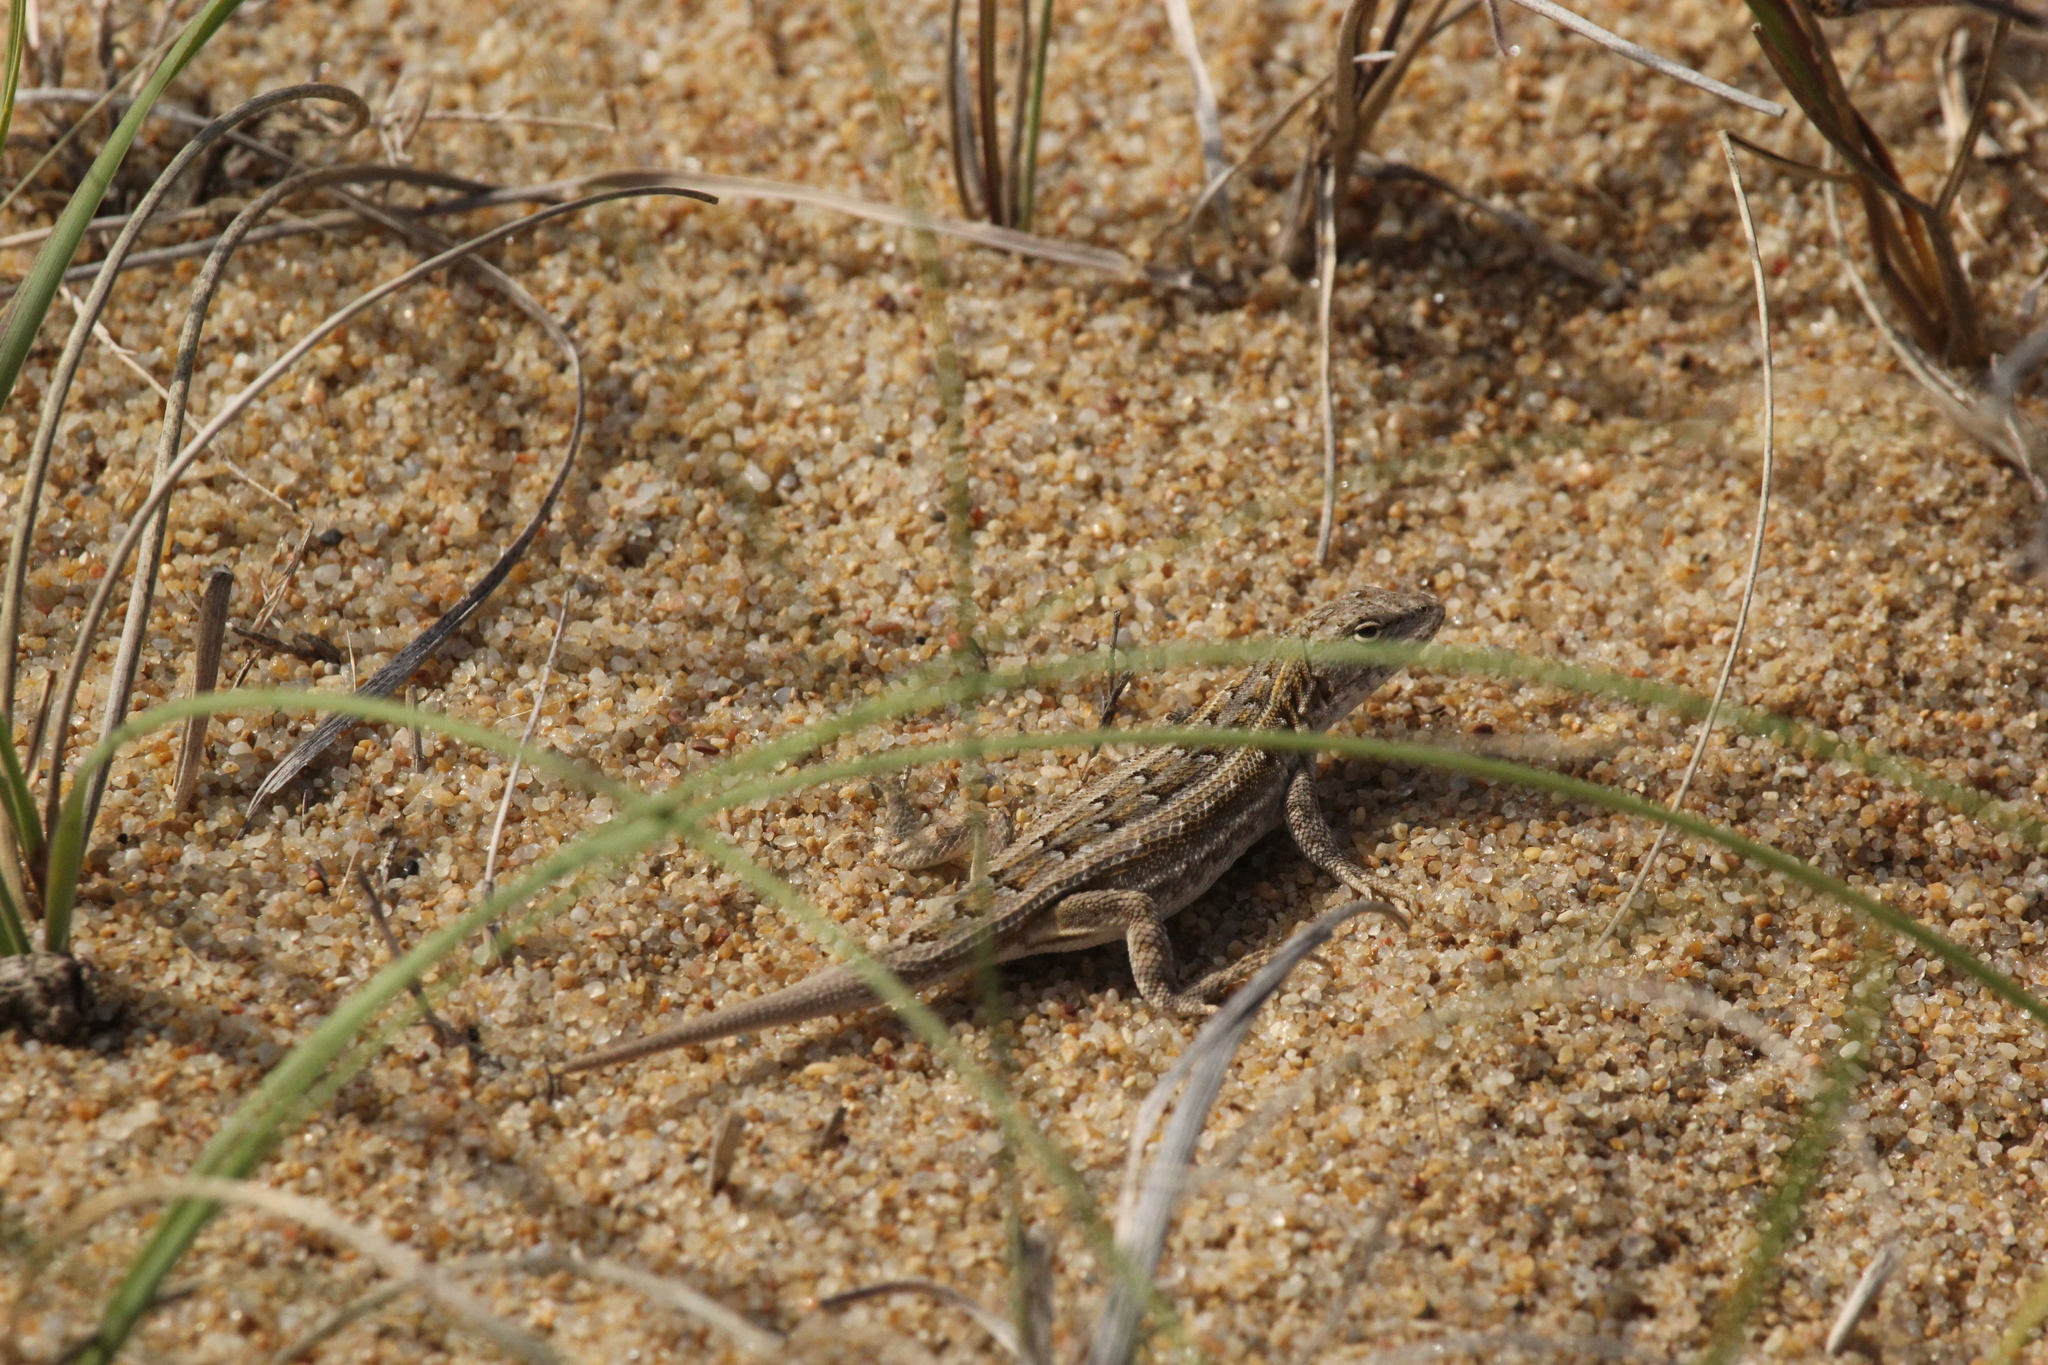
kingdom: Animalia
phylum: Chordata
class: Squamata
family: Liolaemidae
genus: Liolaemus
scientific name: Liolaemus wiegmannii
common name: Wiegmann's tree iguana
